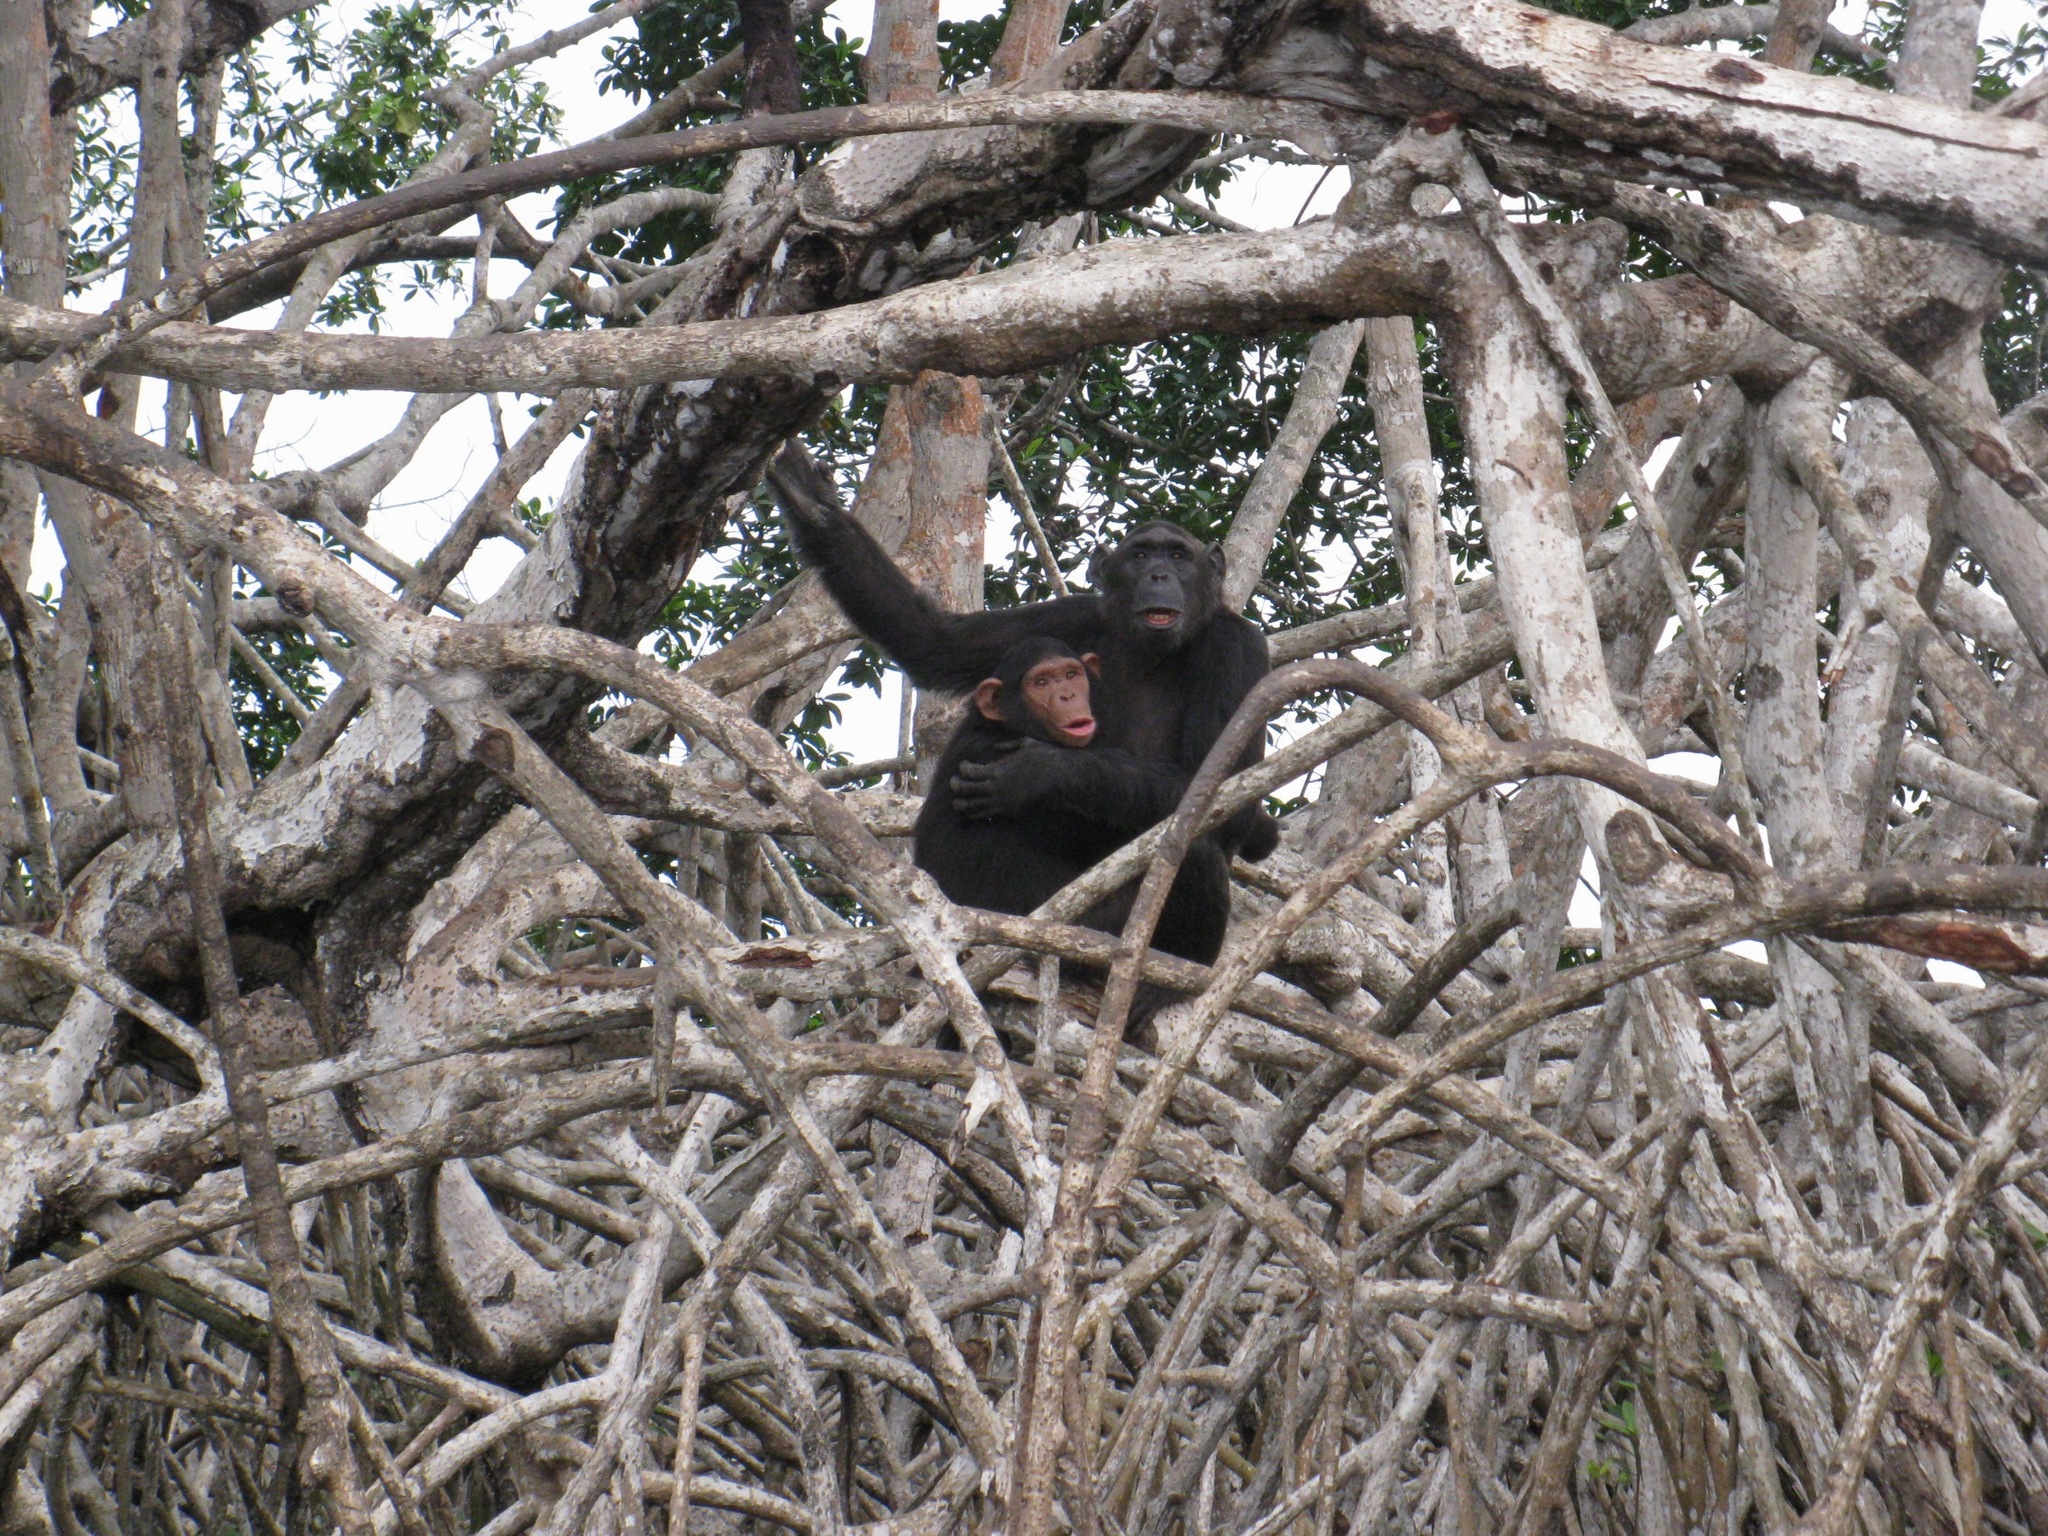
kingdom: Animalia
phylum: Chordata
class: Mammalia
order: Primates
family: Hominidae
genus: Pan
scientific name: Pan troglodytes
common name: Chimpanzee
